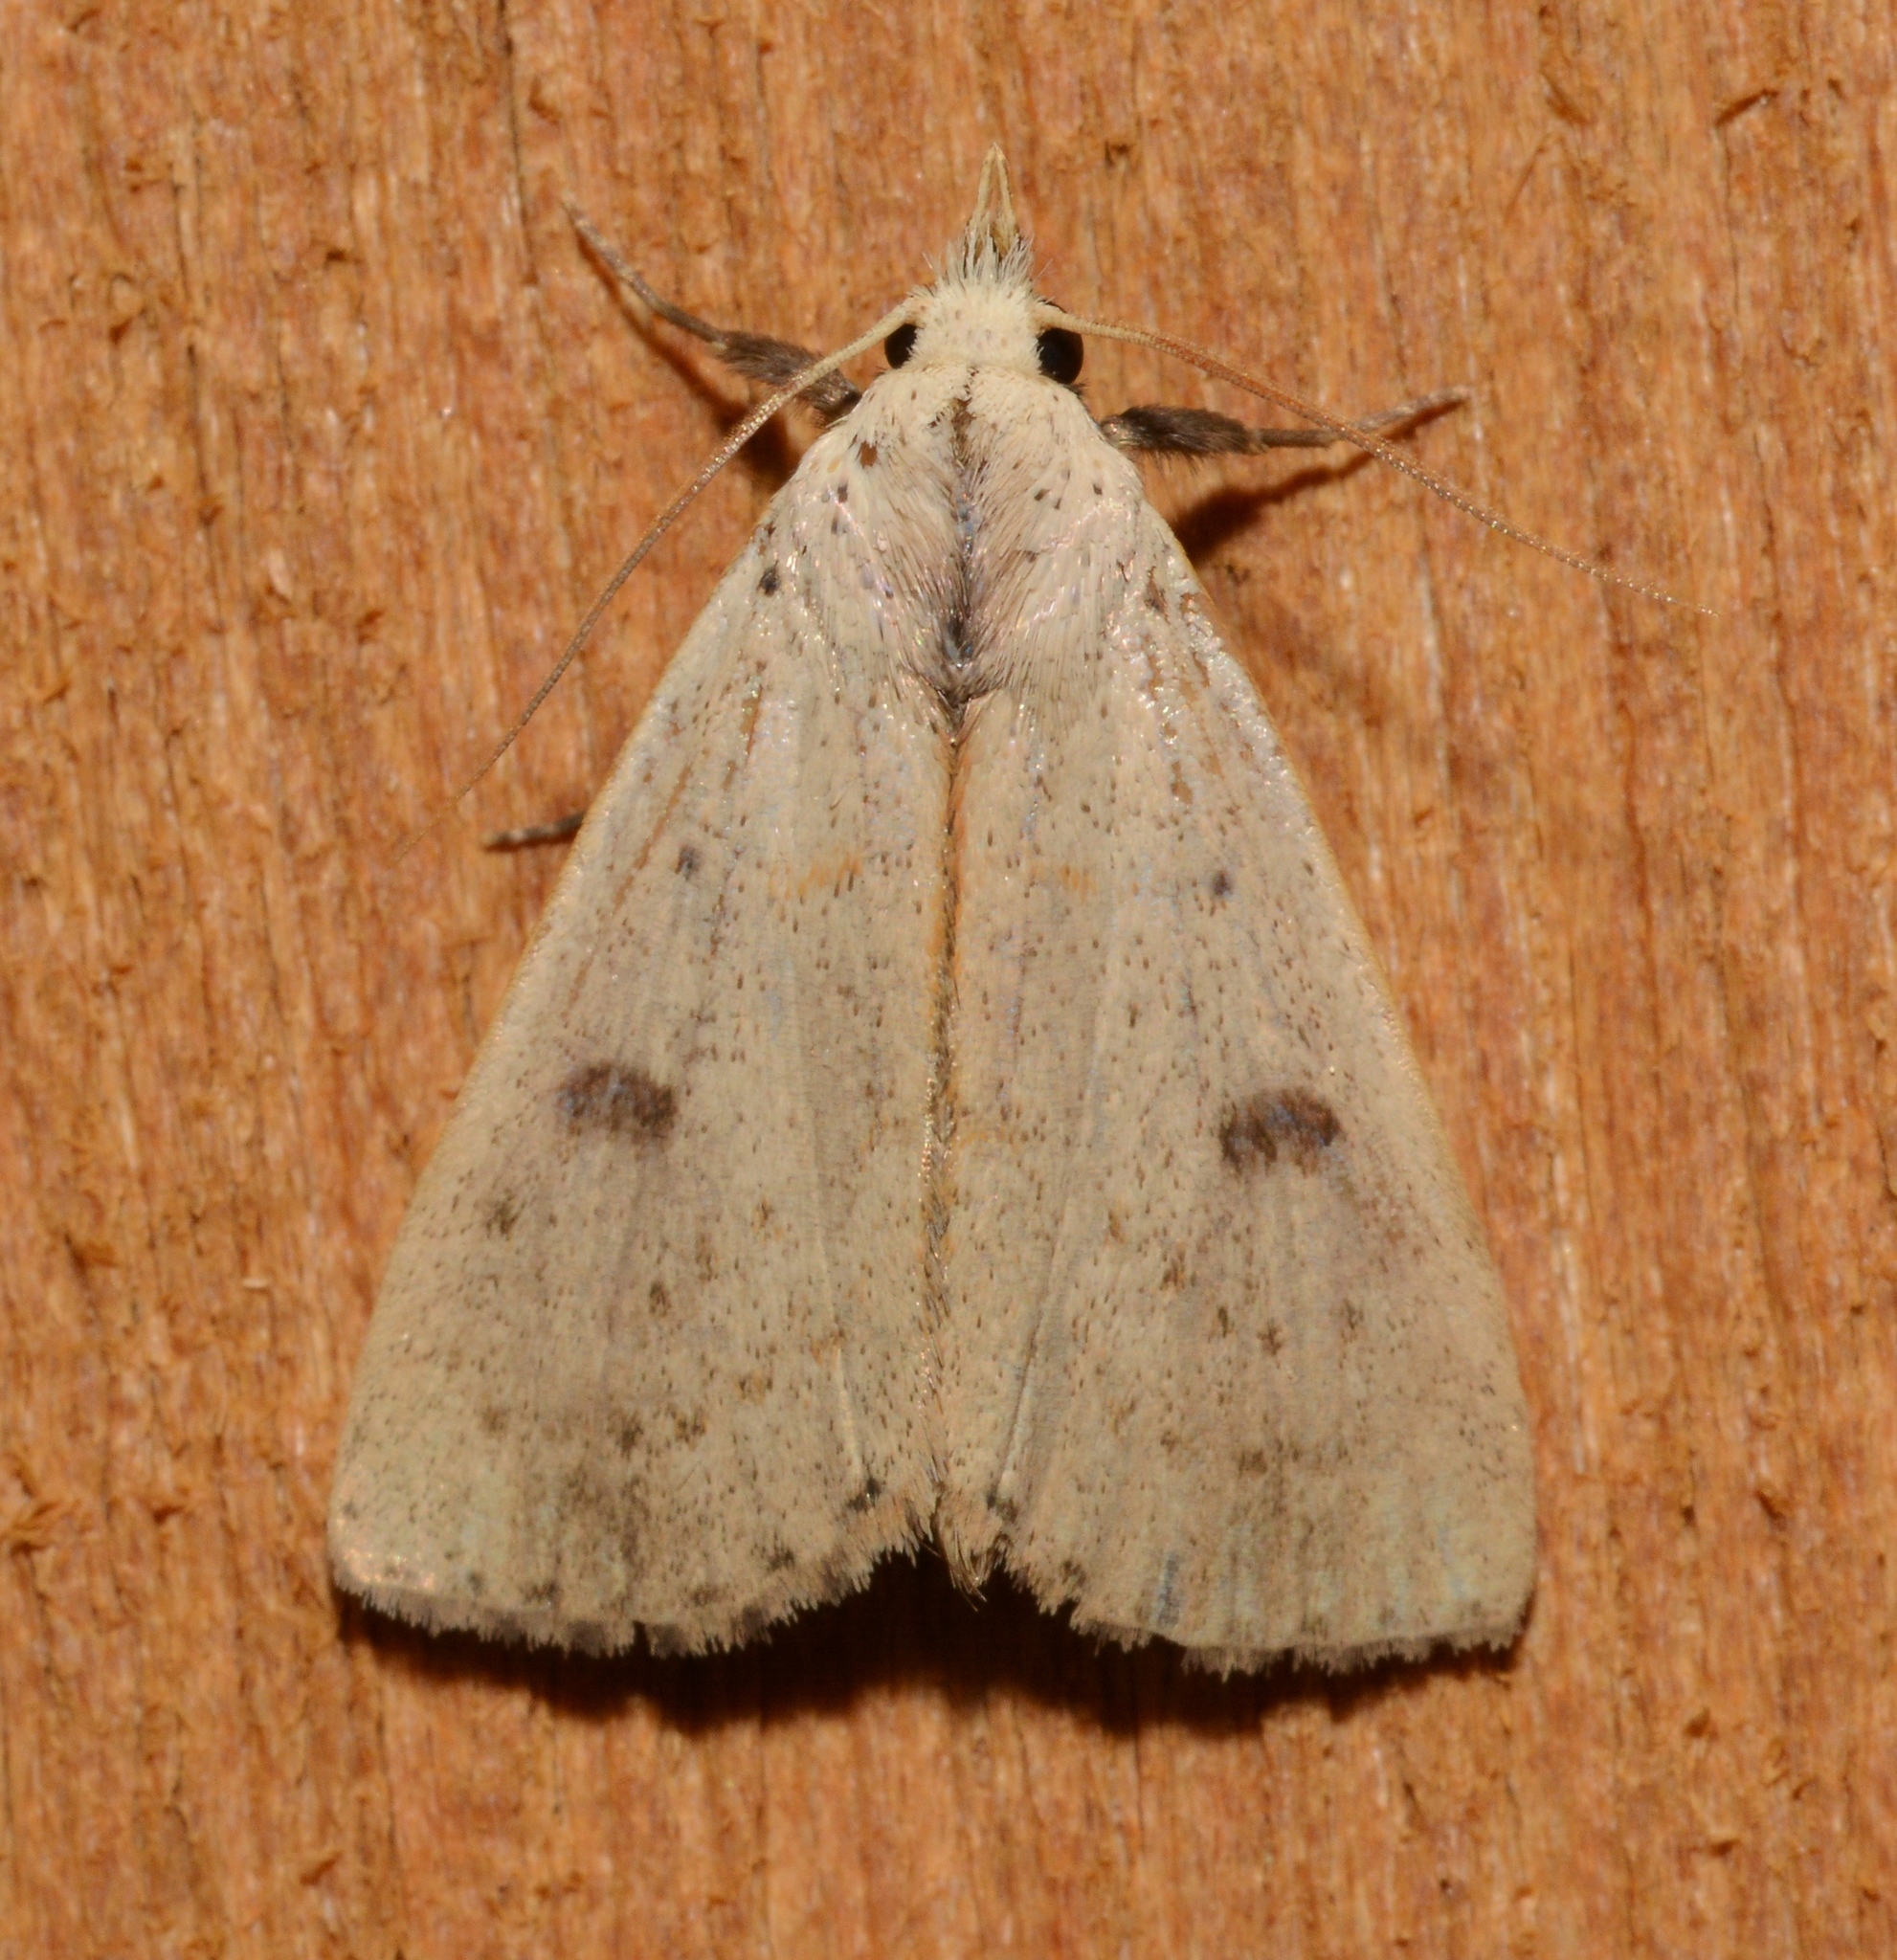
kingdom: Animalia
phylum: Arthropoda
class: Insecta
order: Lepidoptera
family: Erebidae
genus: Scolecocampa
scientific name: Scolecocampa liburna
